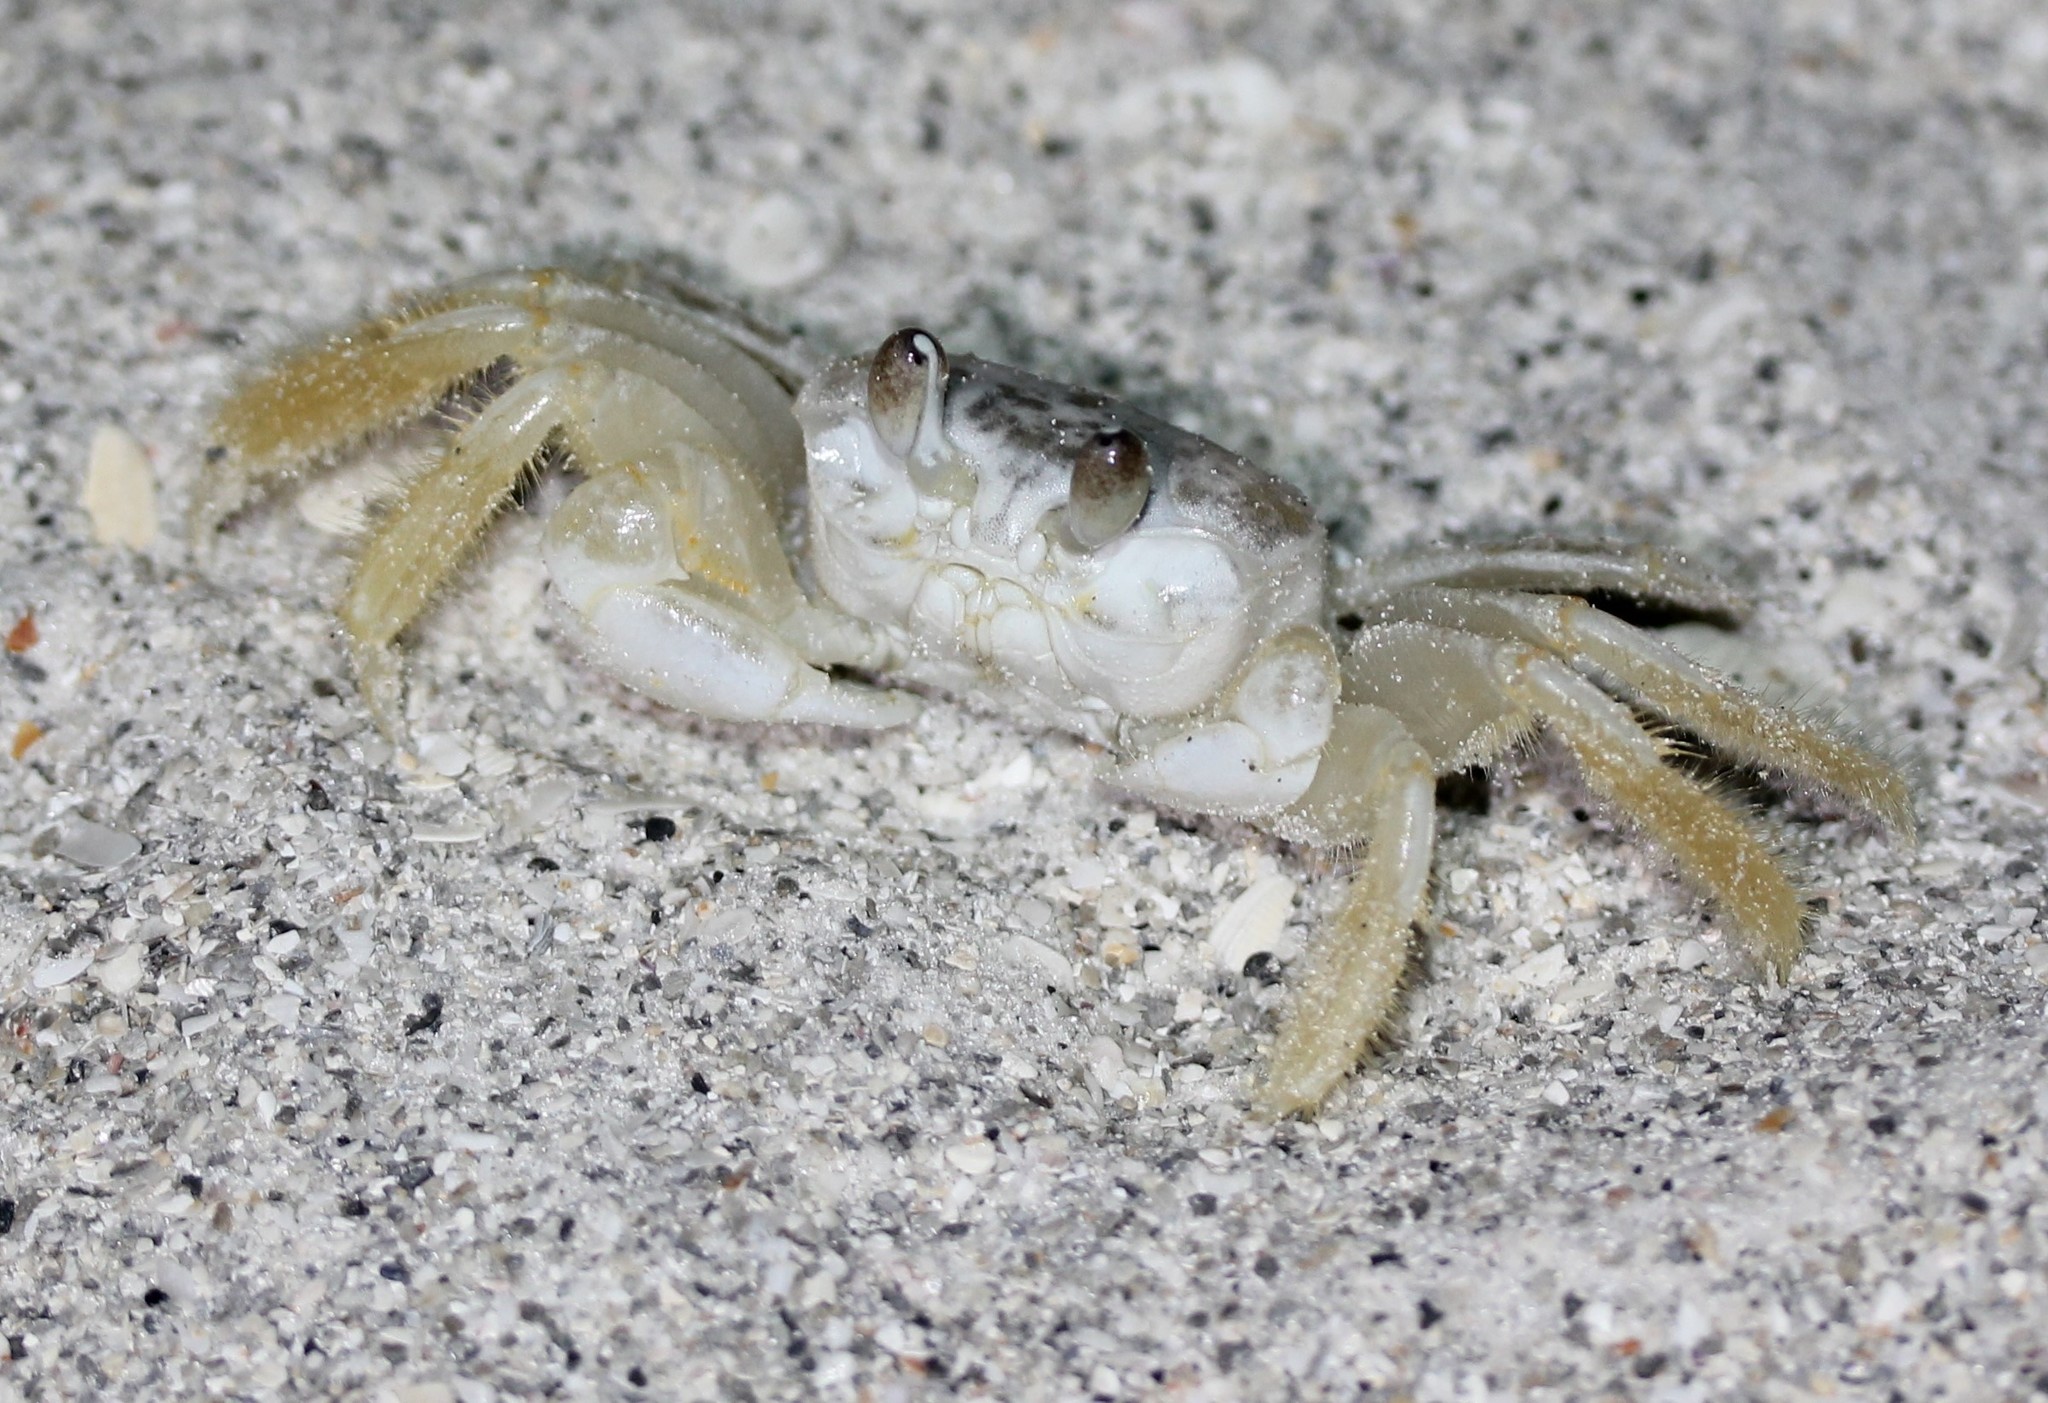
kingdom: Animalia
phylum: Arthropoda
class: Malacostraca
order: Decapoda
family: Ocypodidae
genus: Ocypode
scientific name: Ocypode quadrata
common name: Ghost crab
